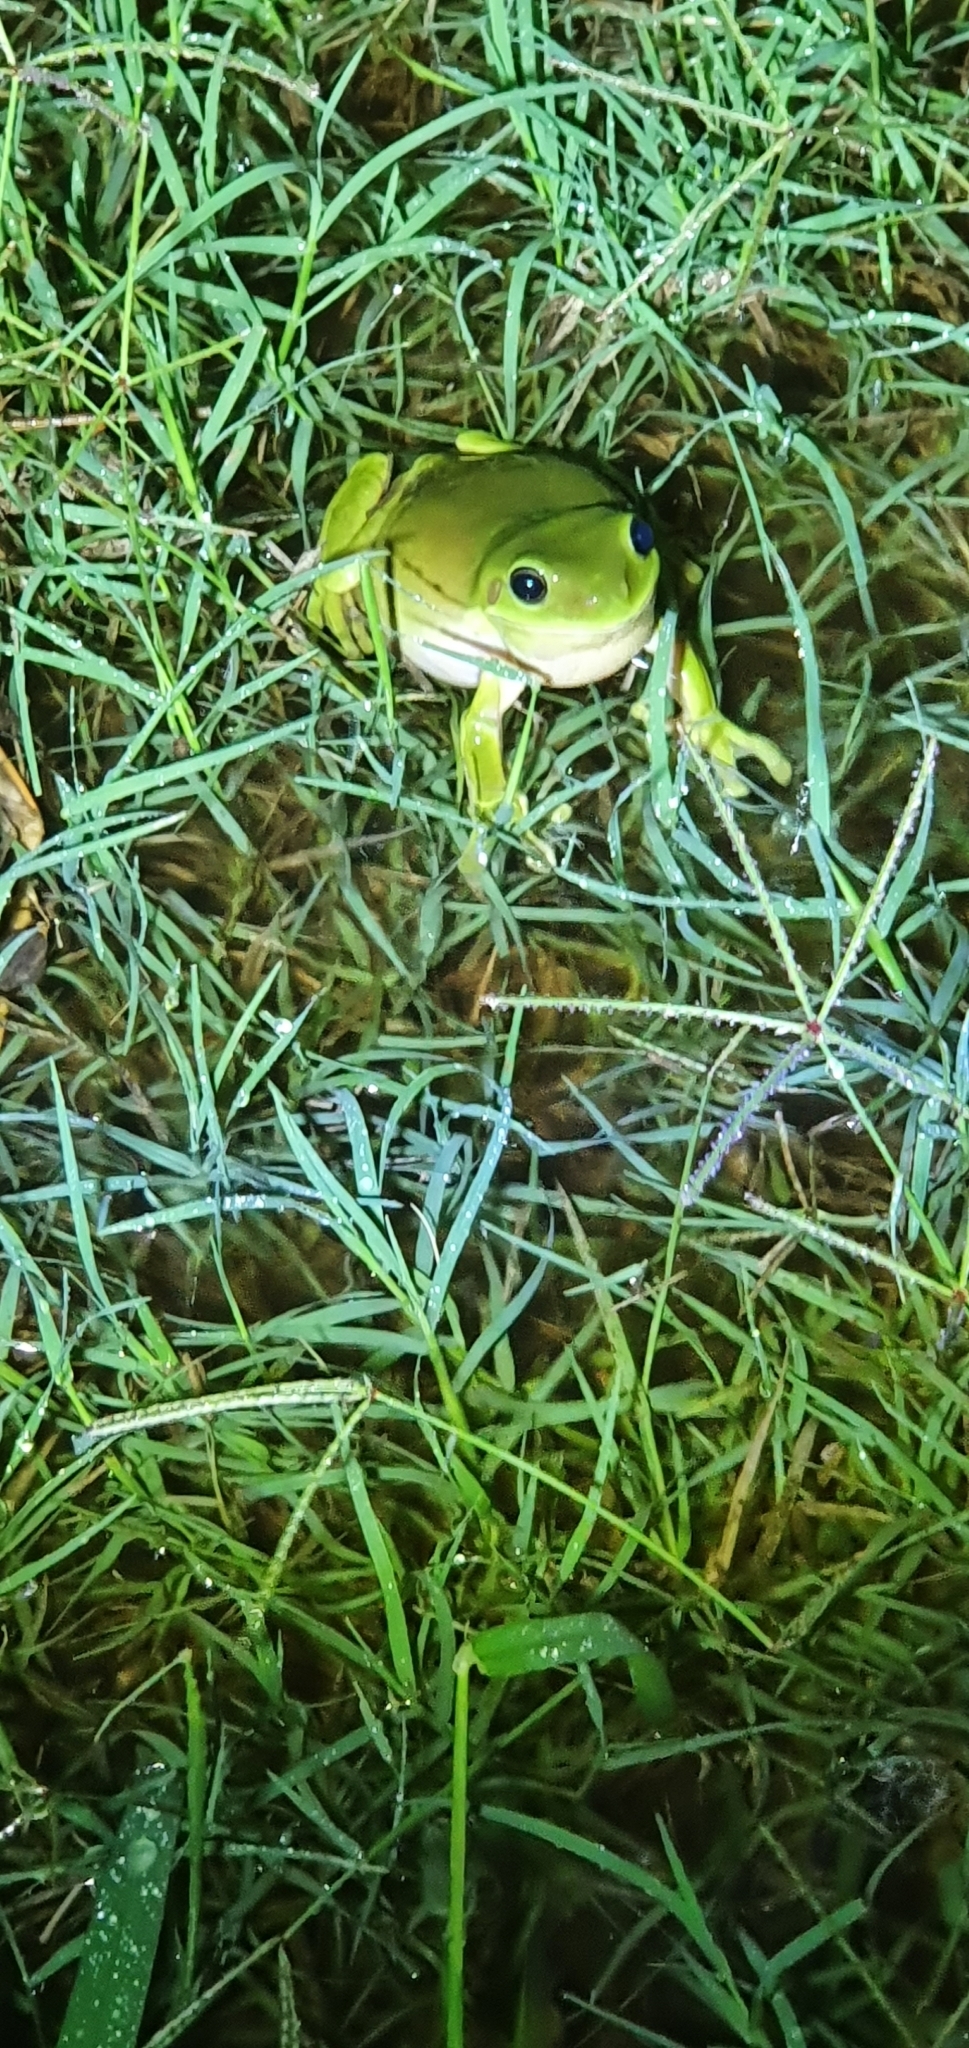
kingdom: Animalia
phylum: Chordata
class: Amphibia
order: Anura
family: Pelodryadidae
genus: Ranoidea
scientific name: Ranoidea caerulea
